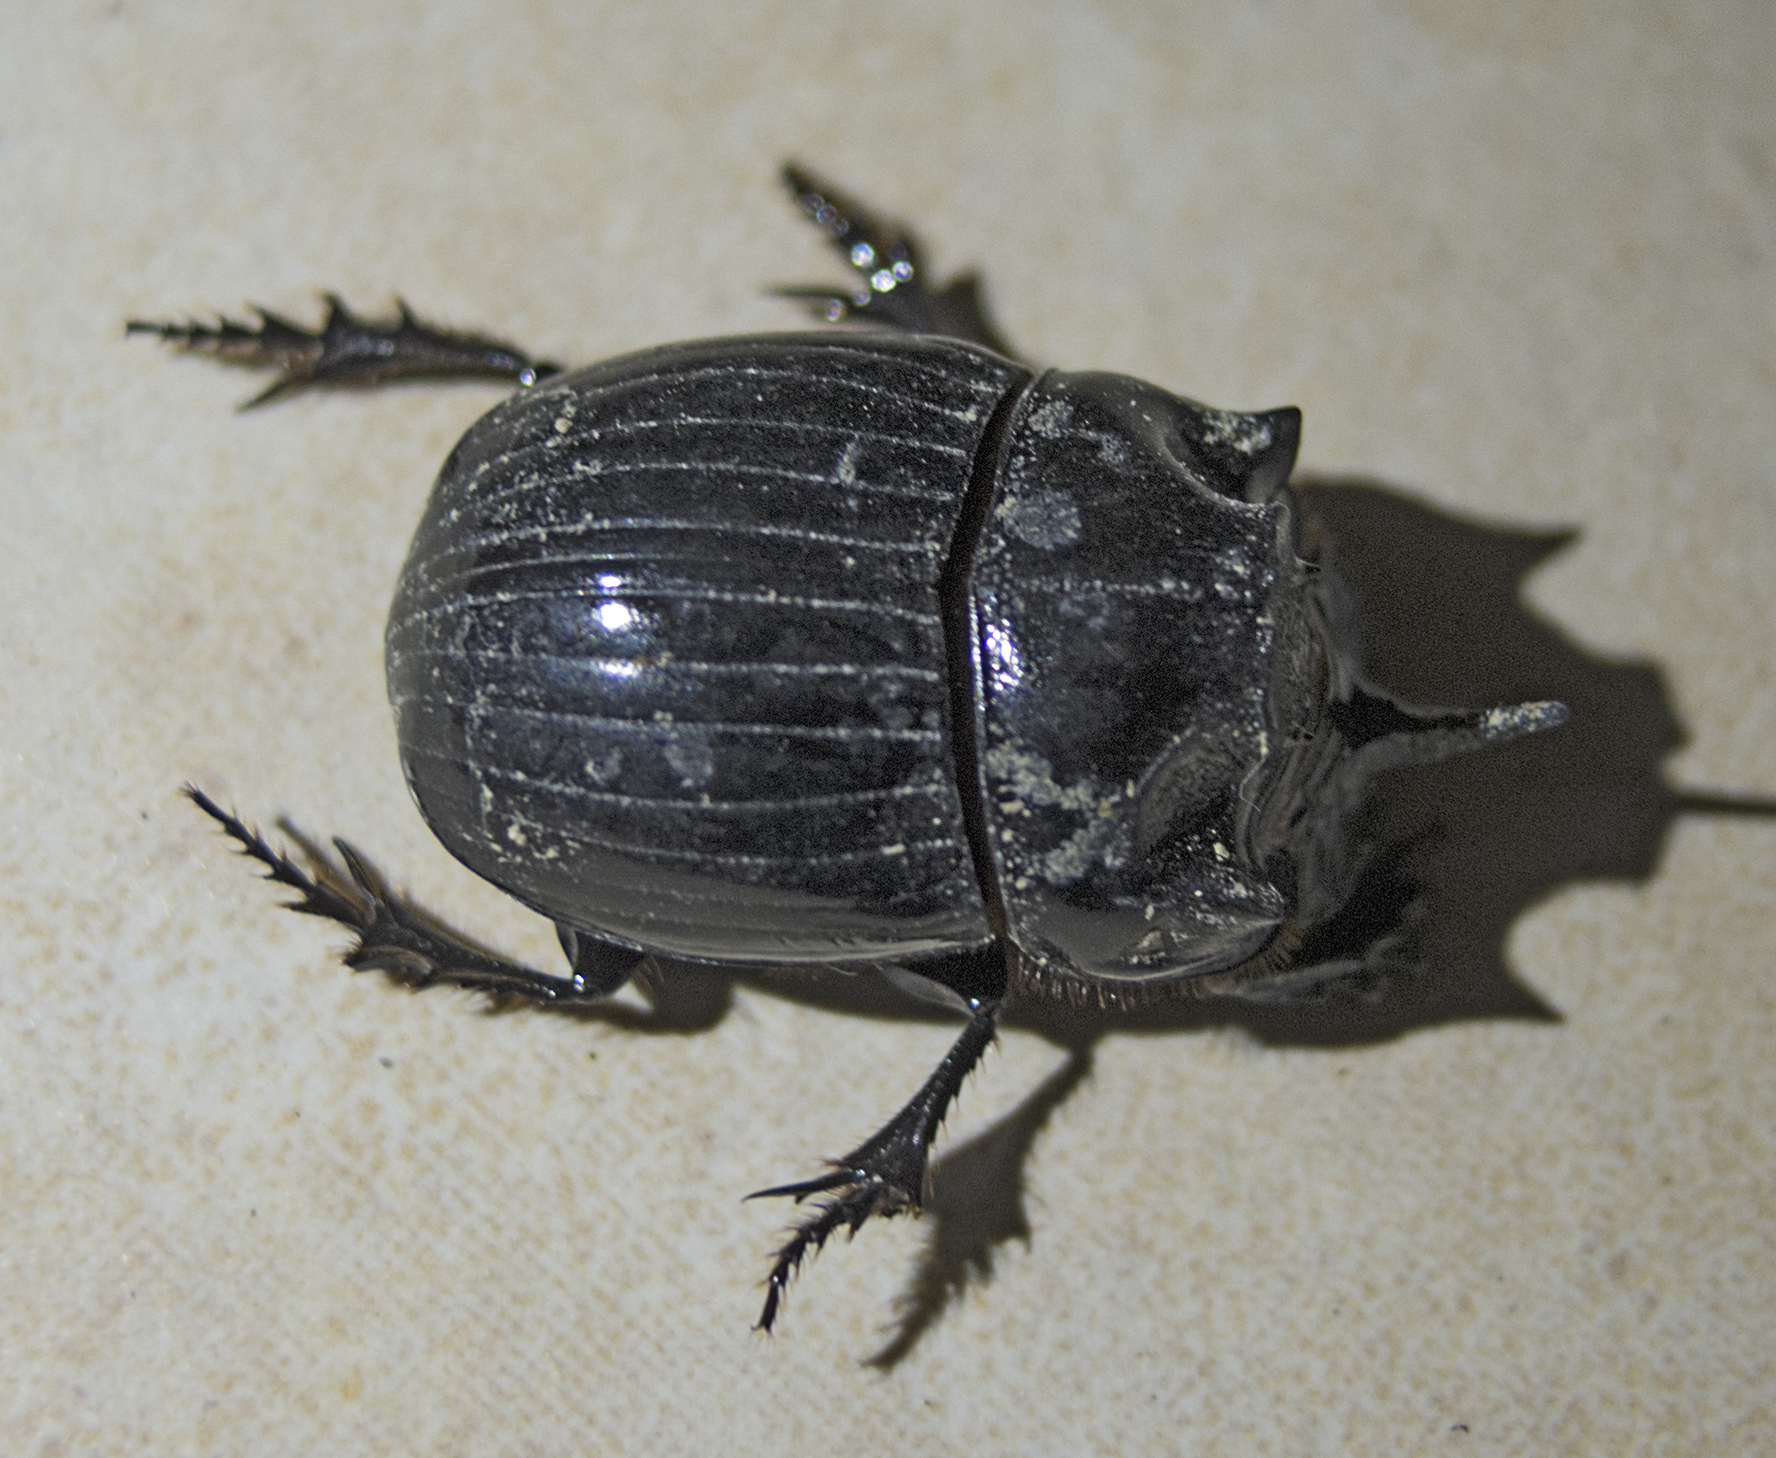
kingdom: Animalia
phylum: Arthropoda
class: Insecta
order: Coleoptera
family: Scarabaeidae
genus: Copris
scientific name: Copris lunaris
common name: Horned dung beetle
